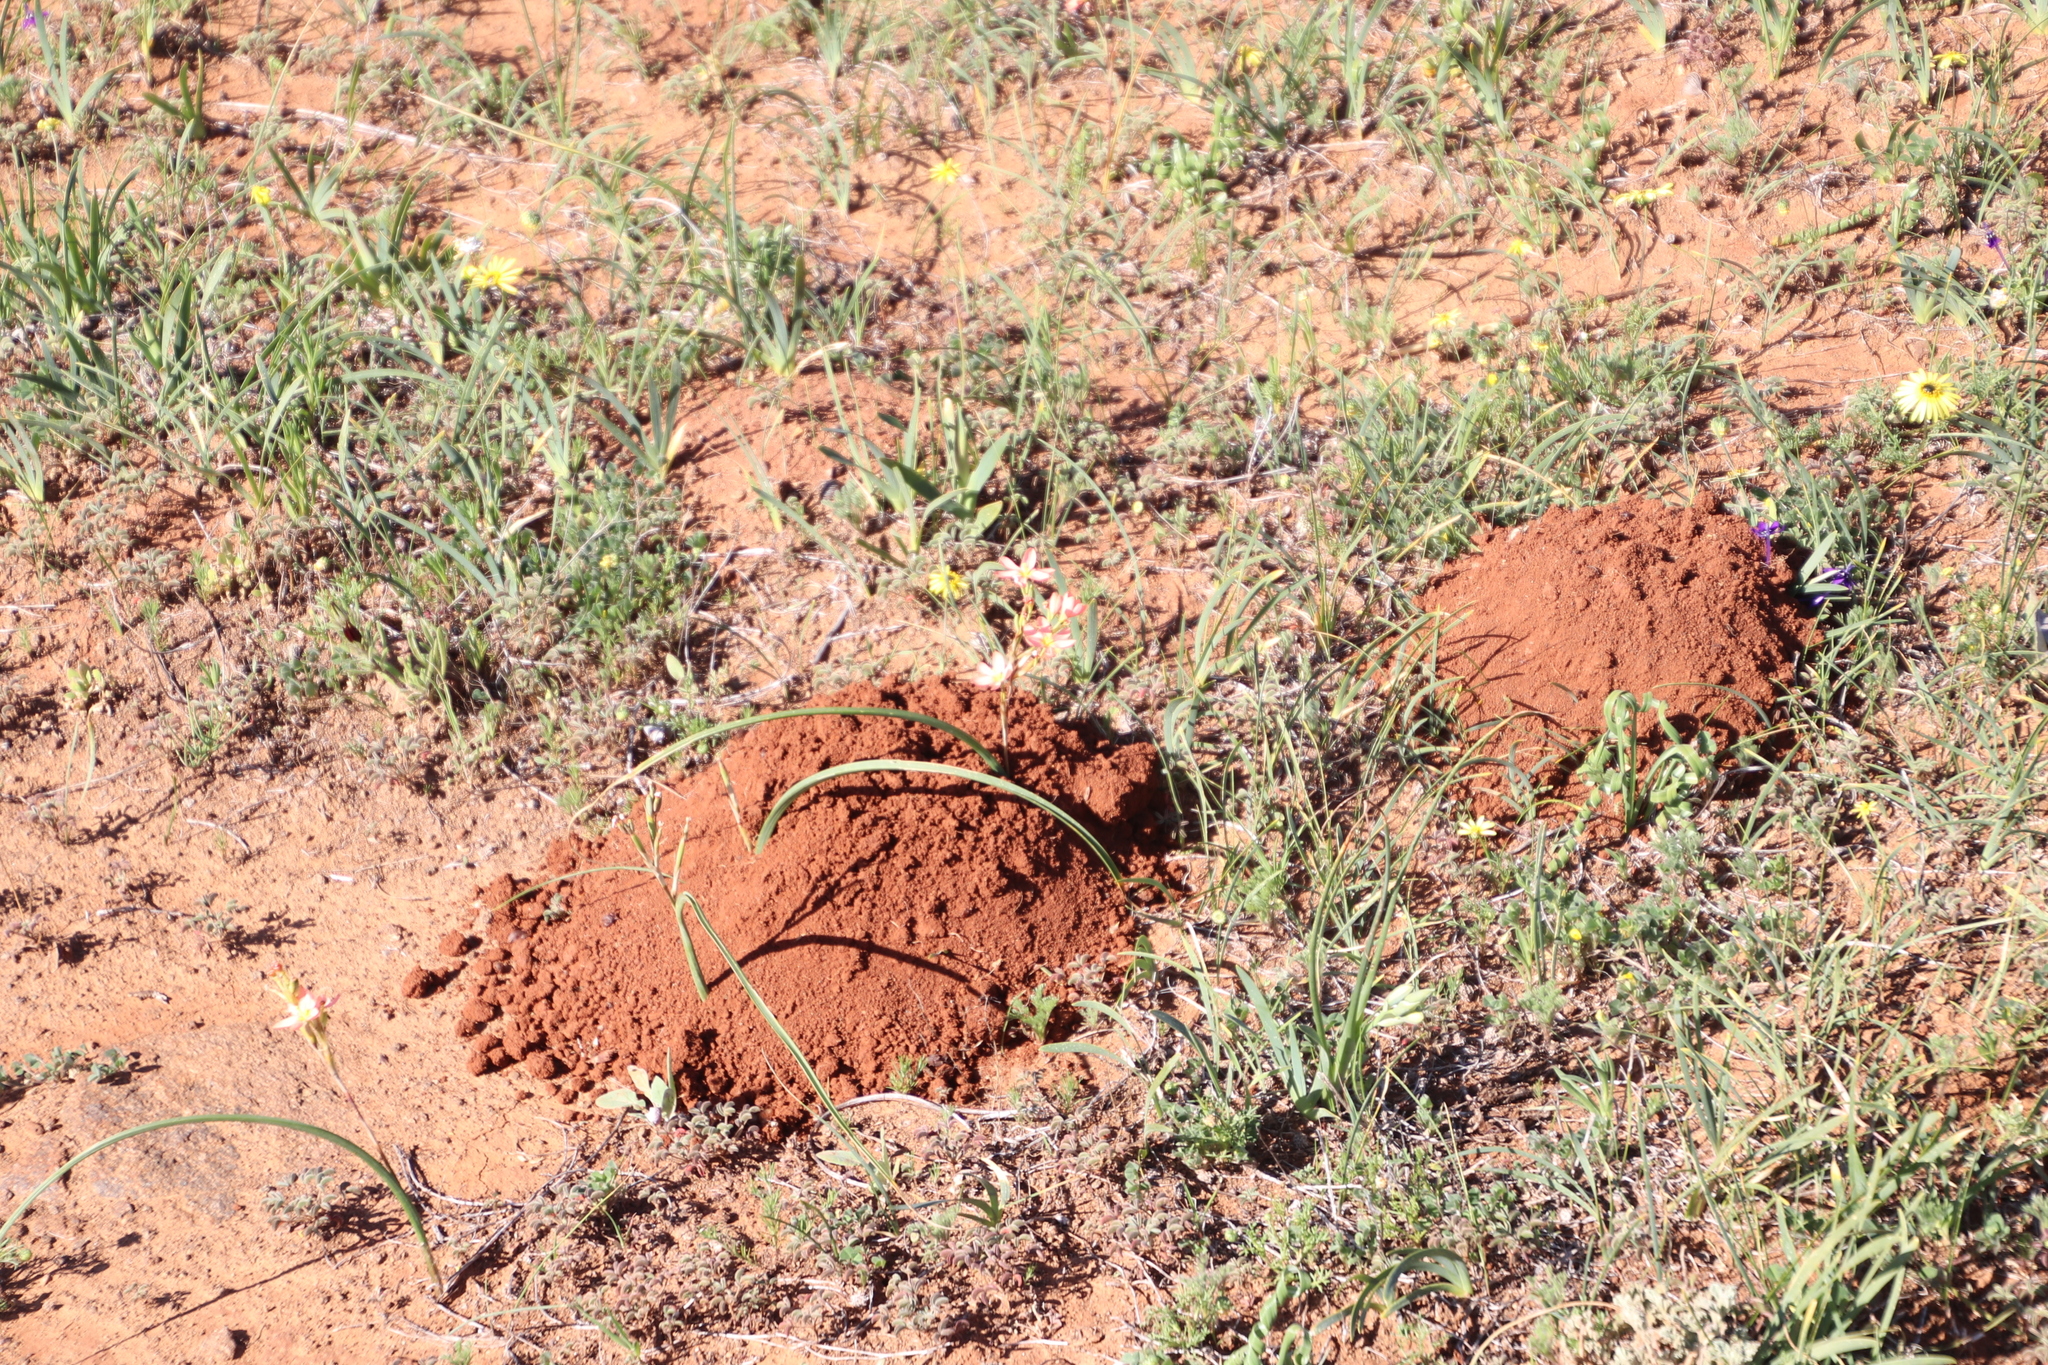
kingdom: Animalia
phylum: Chordata
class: Mammalia
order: Rodentia
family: Bathyergidae
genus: Cryptomys
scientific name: Cryptomys hottentotus
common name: Southern african mole-rat
